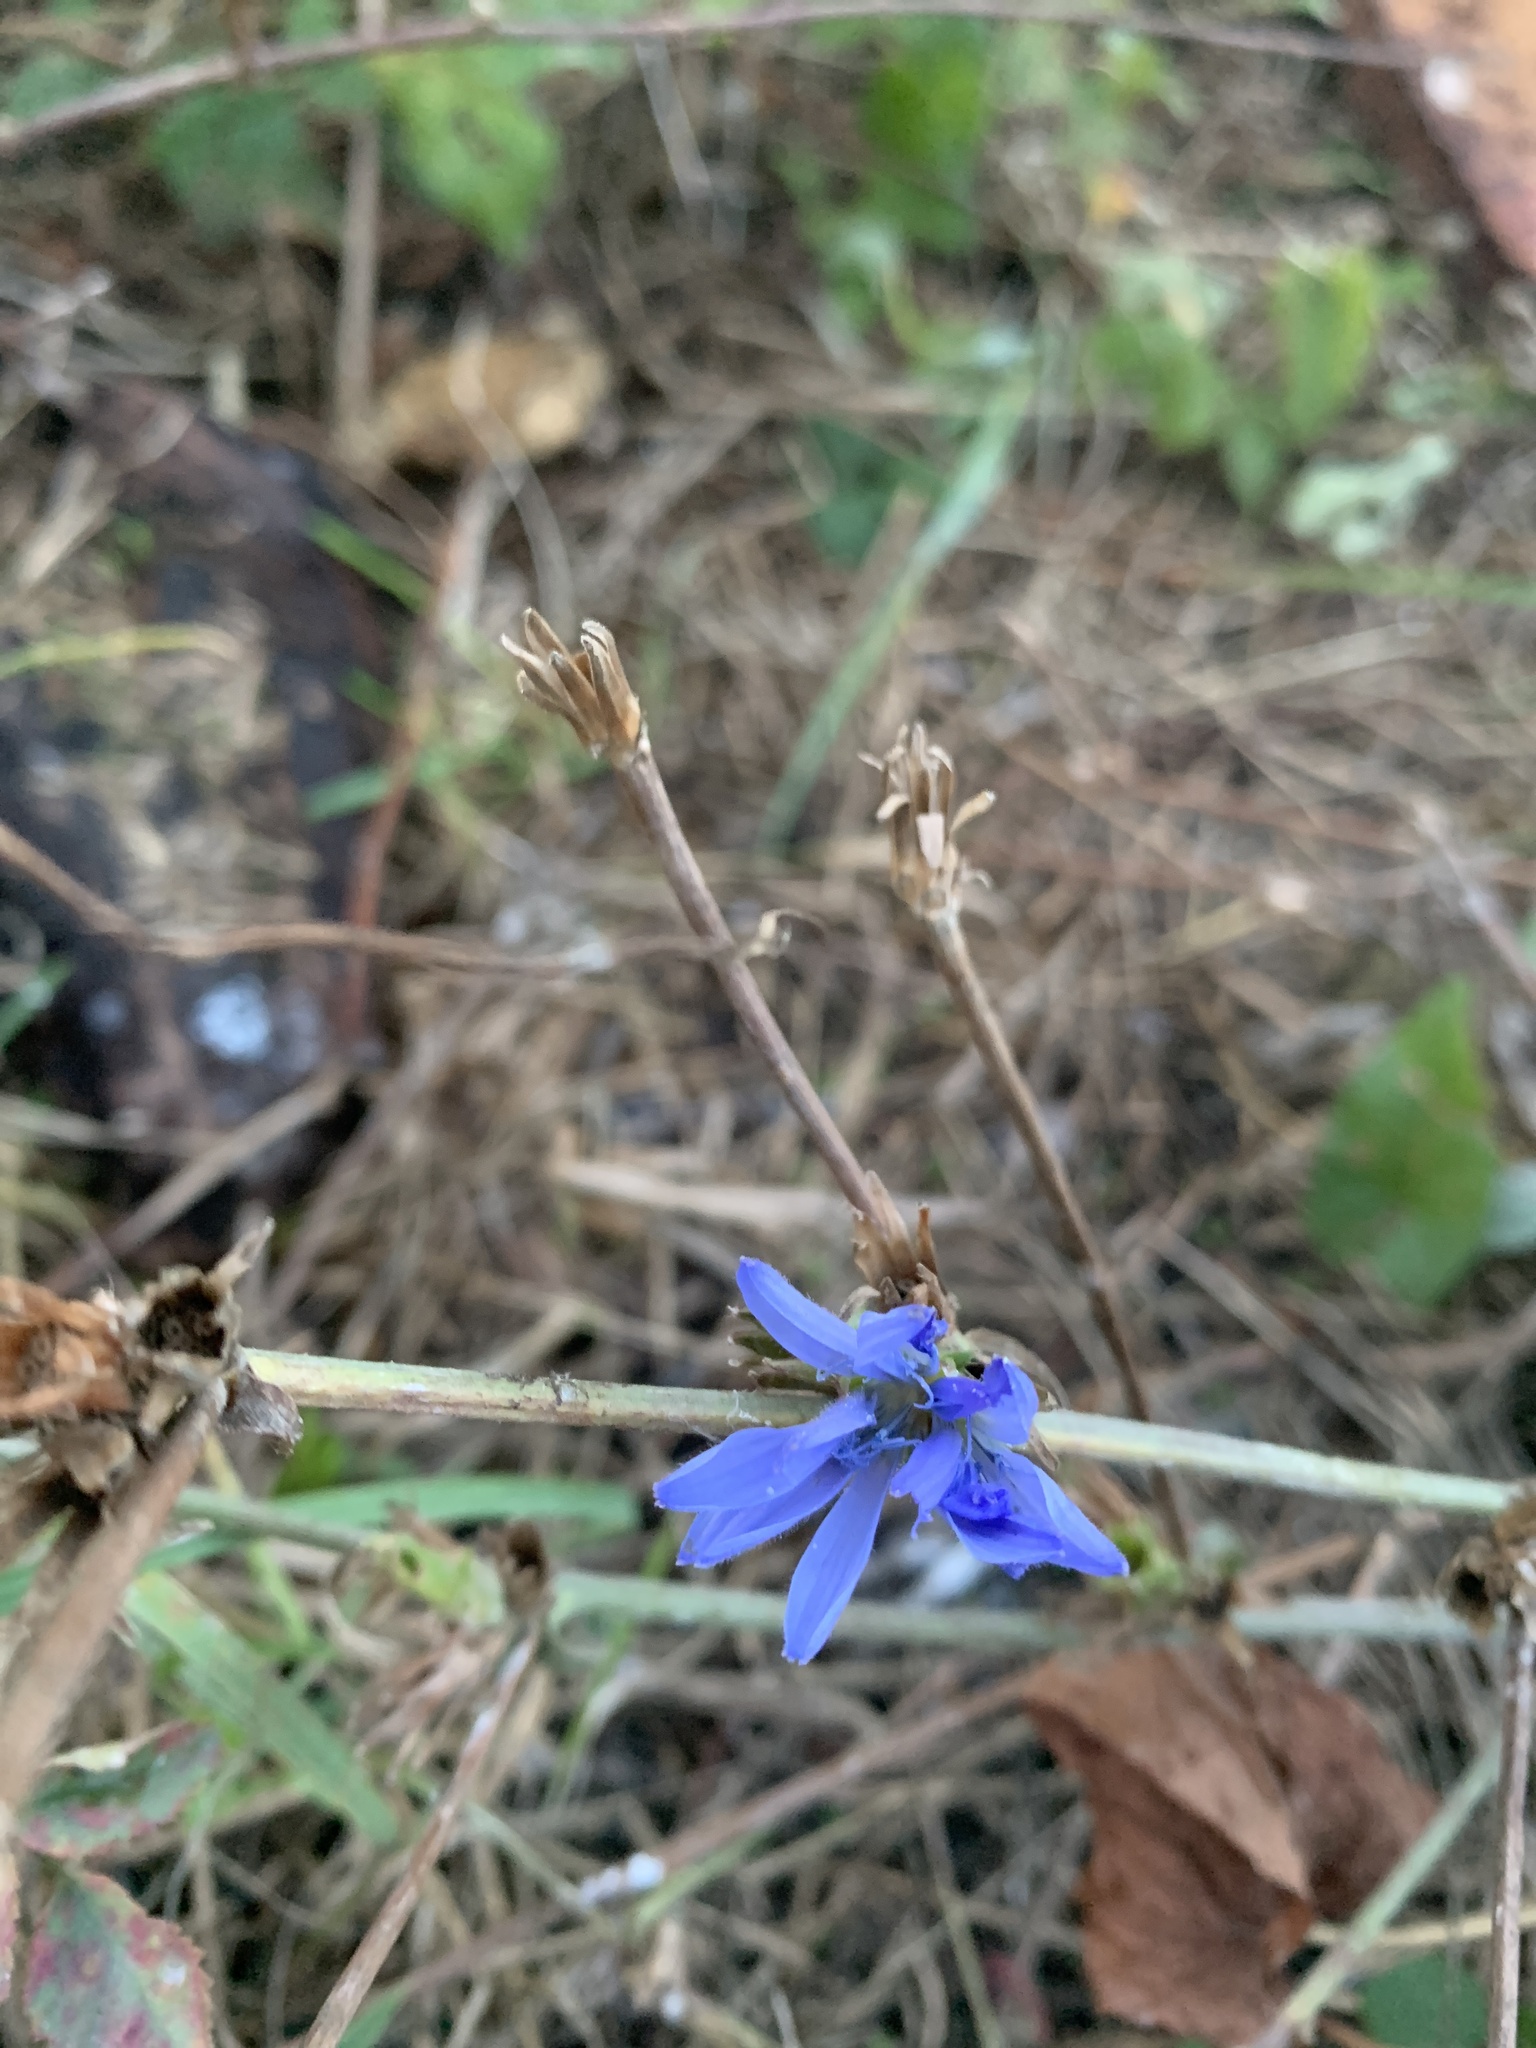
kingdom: Plantae
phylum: Tracheophyta
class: Magnoliopsida
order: Asterales
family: Asteraceae
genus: Cichorium
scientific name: Cichorium intybus
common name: Chicory
